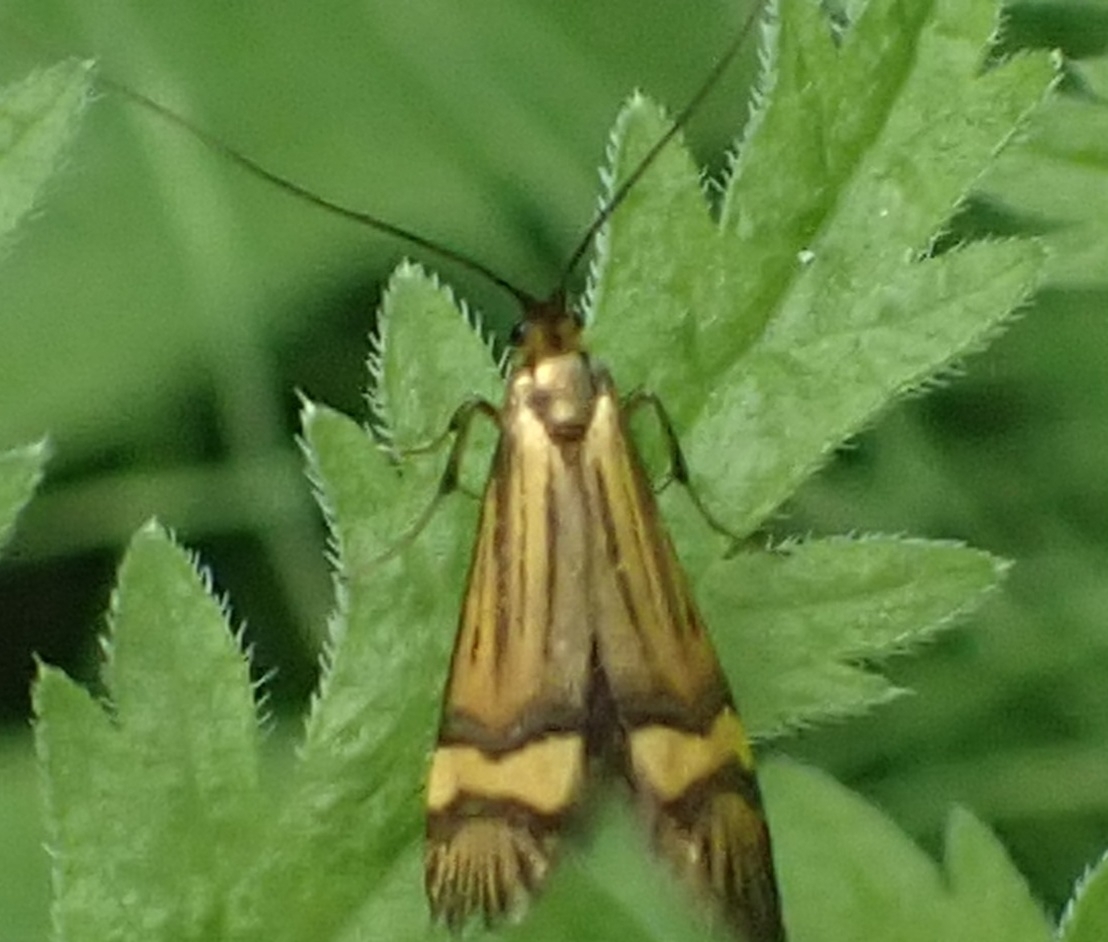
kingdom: Animalia
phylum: Arthropoda
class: Insecta
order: Lepidoptera
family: Adelidae
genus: Nemophora
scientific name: Nemophora degeerella
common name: Yellow-barred long-horn
